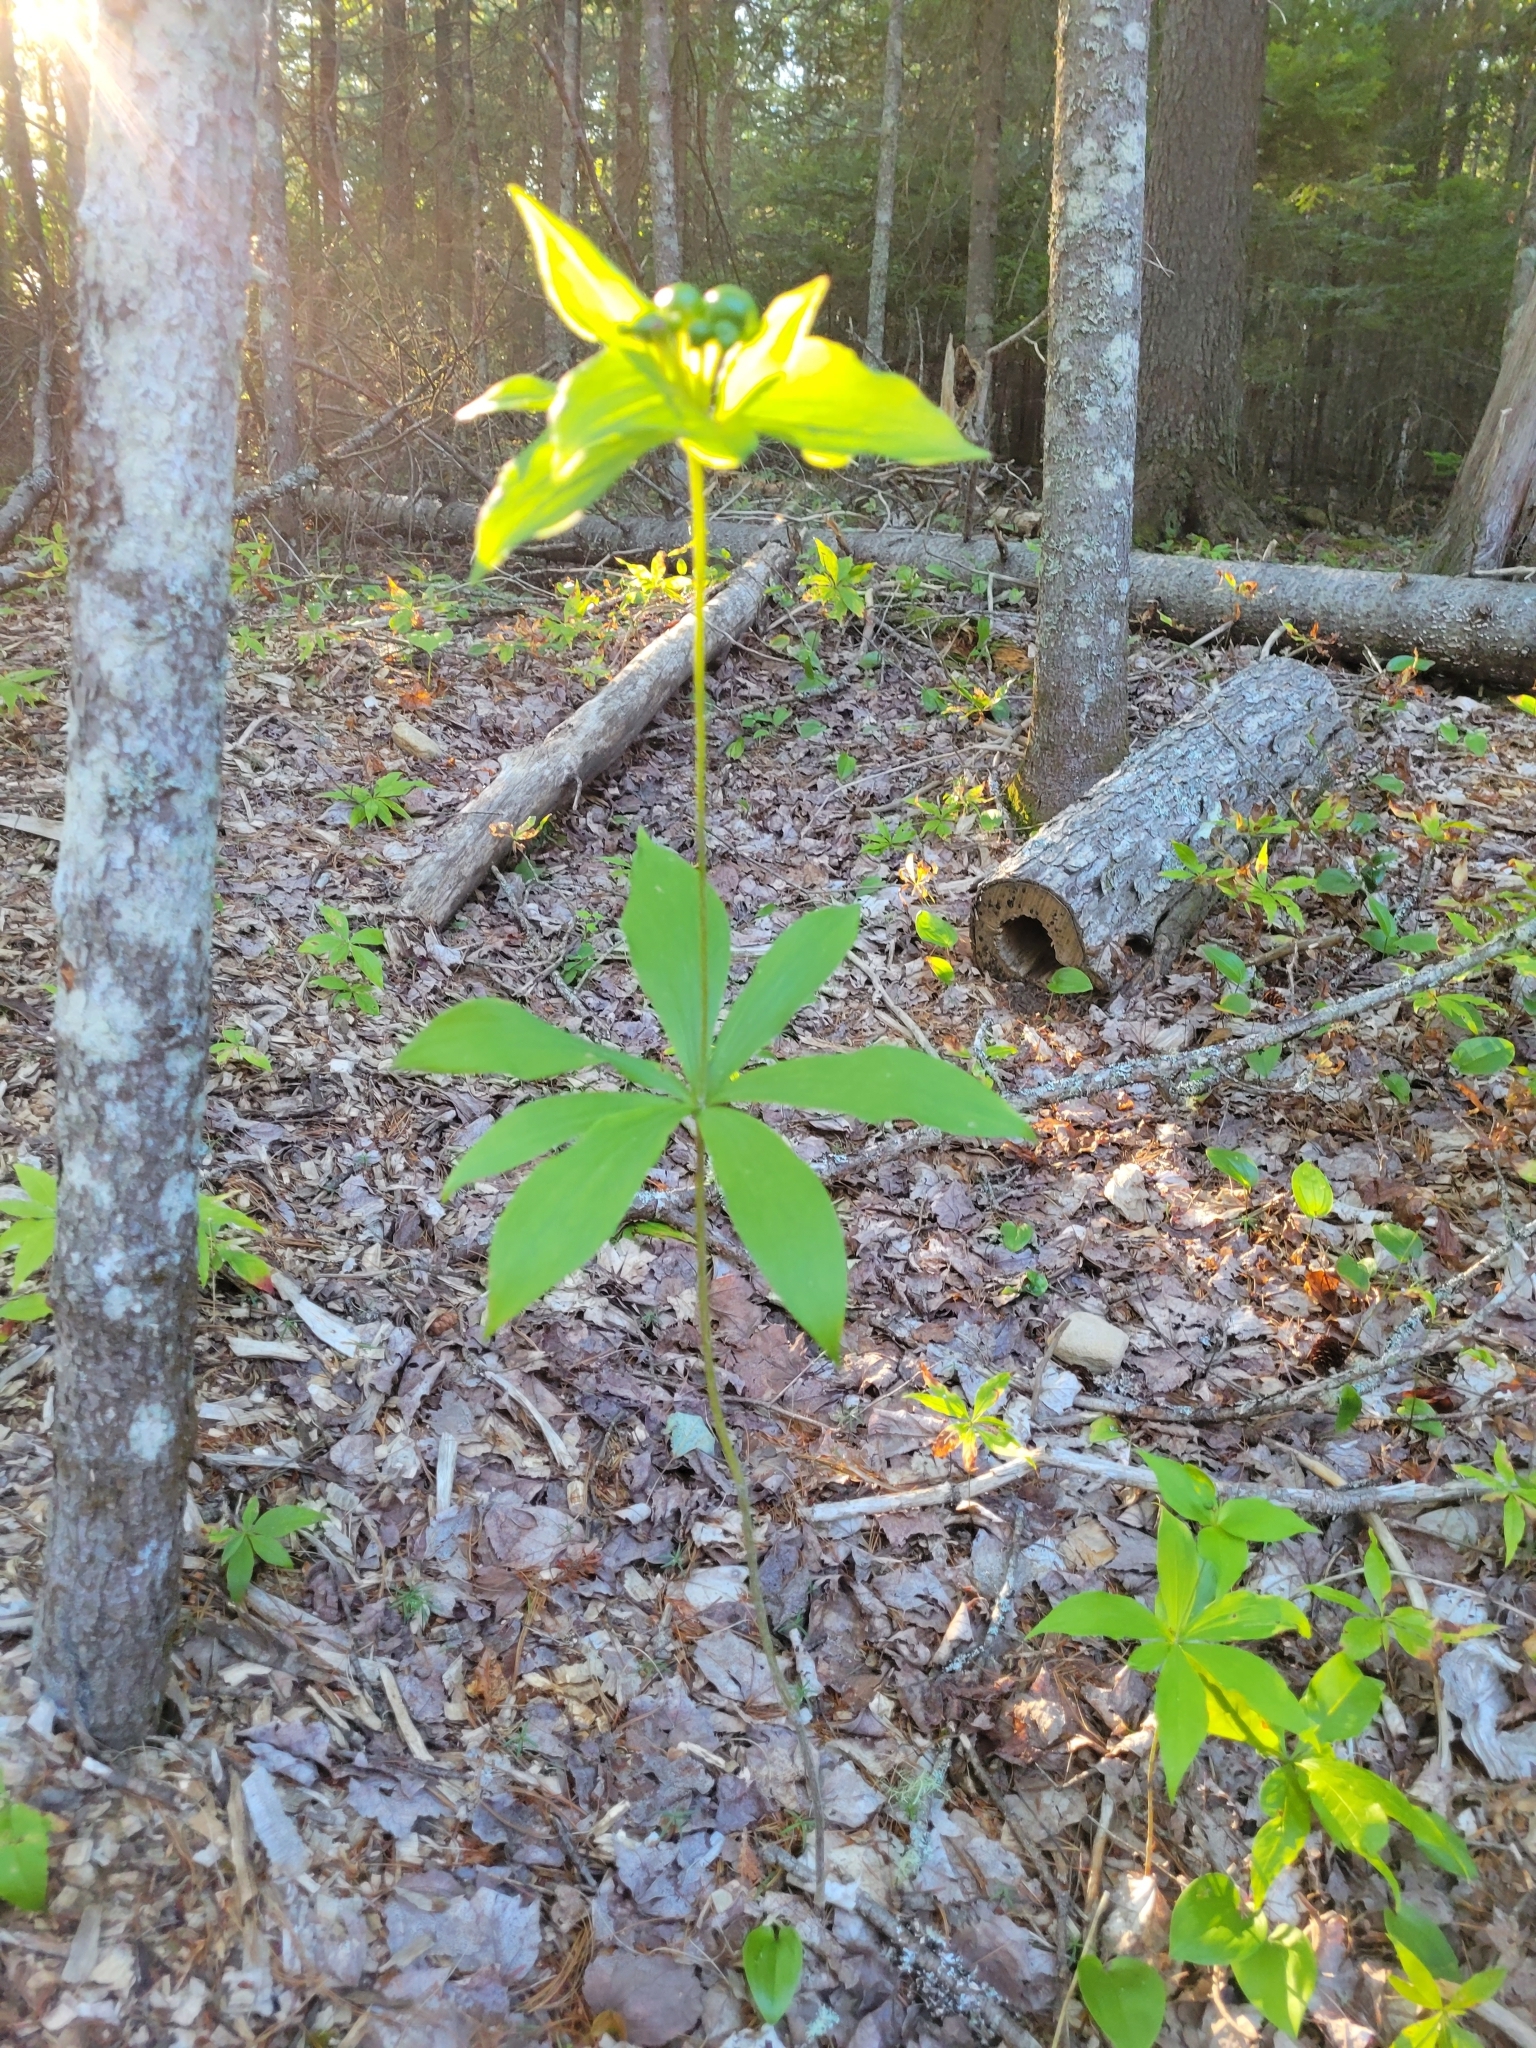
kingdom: Plantae
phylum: Tracheophyta
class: Liliopsida
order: Liliales
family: Liliaceae
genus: Medeola
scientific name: Medeola virginiana
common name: Indian cucumber-root
